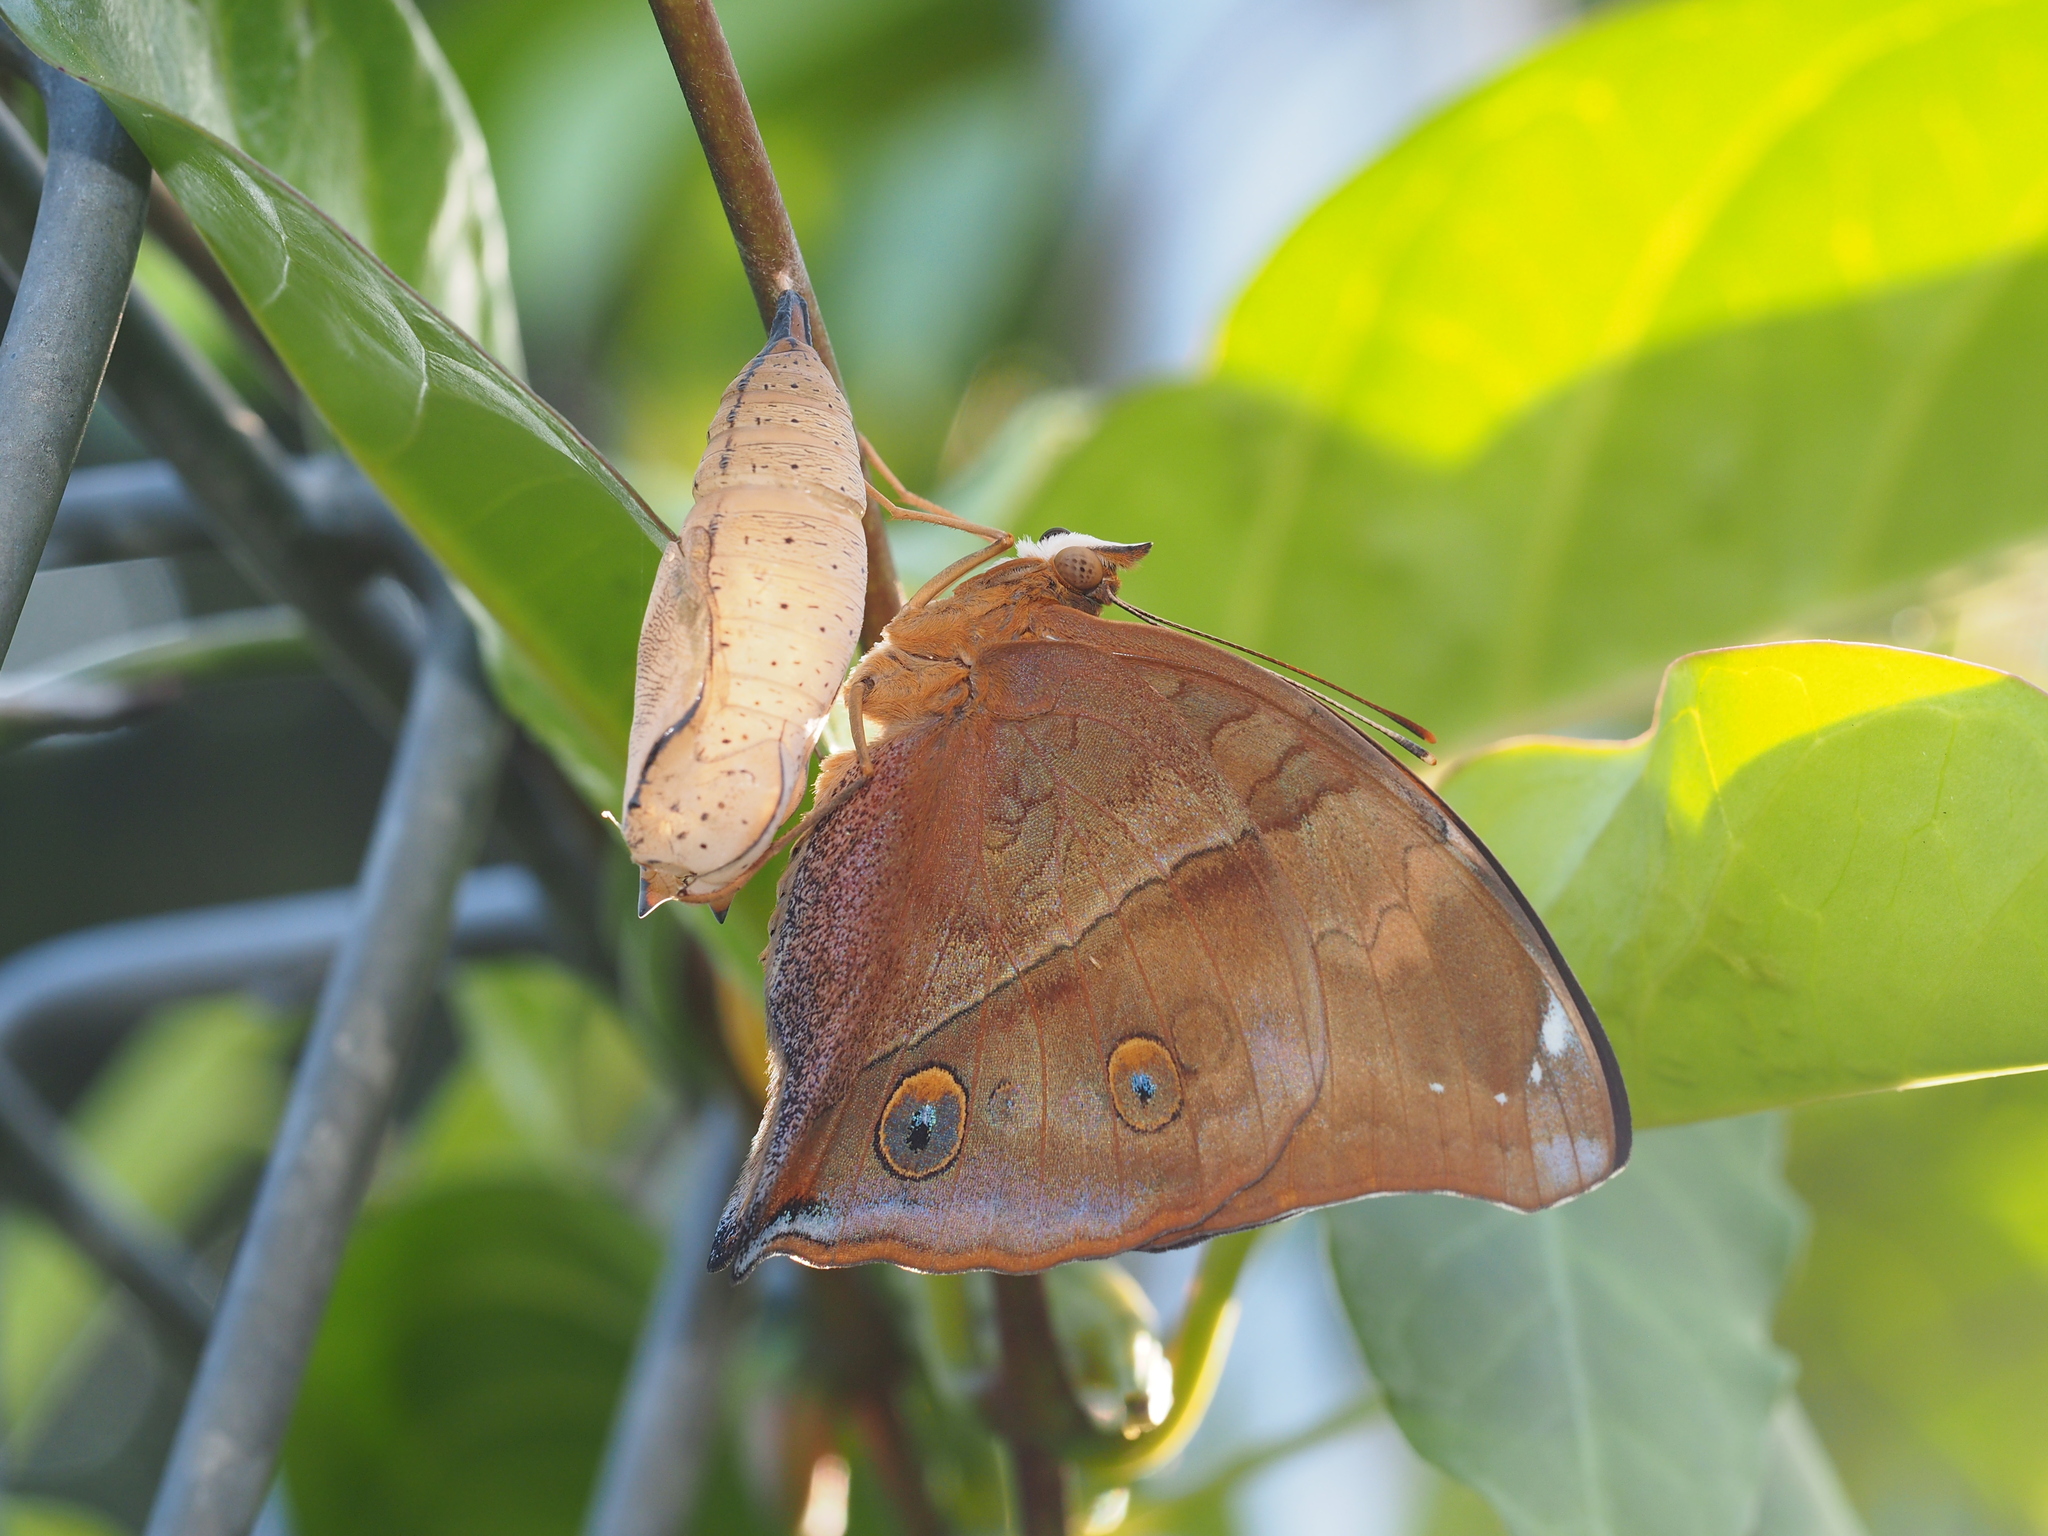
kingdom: Animalia
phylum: Arthropoda
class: Insecta
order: Lepidoptera
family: Nymphalidae
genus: Doleschallia
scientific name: Doleschallia bisaltide
